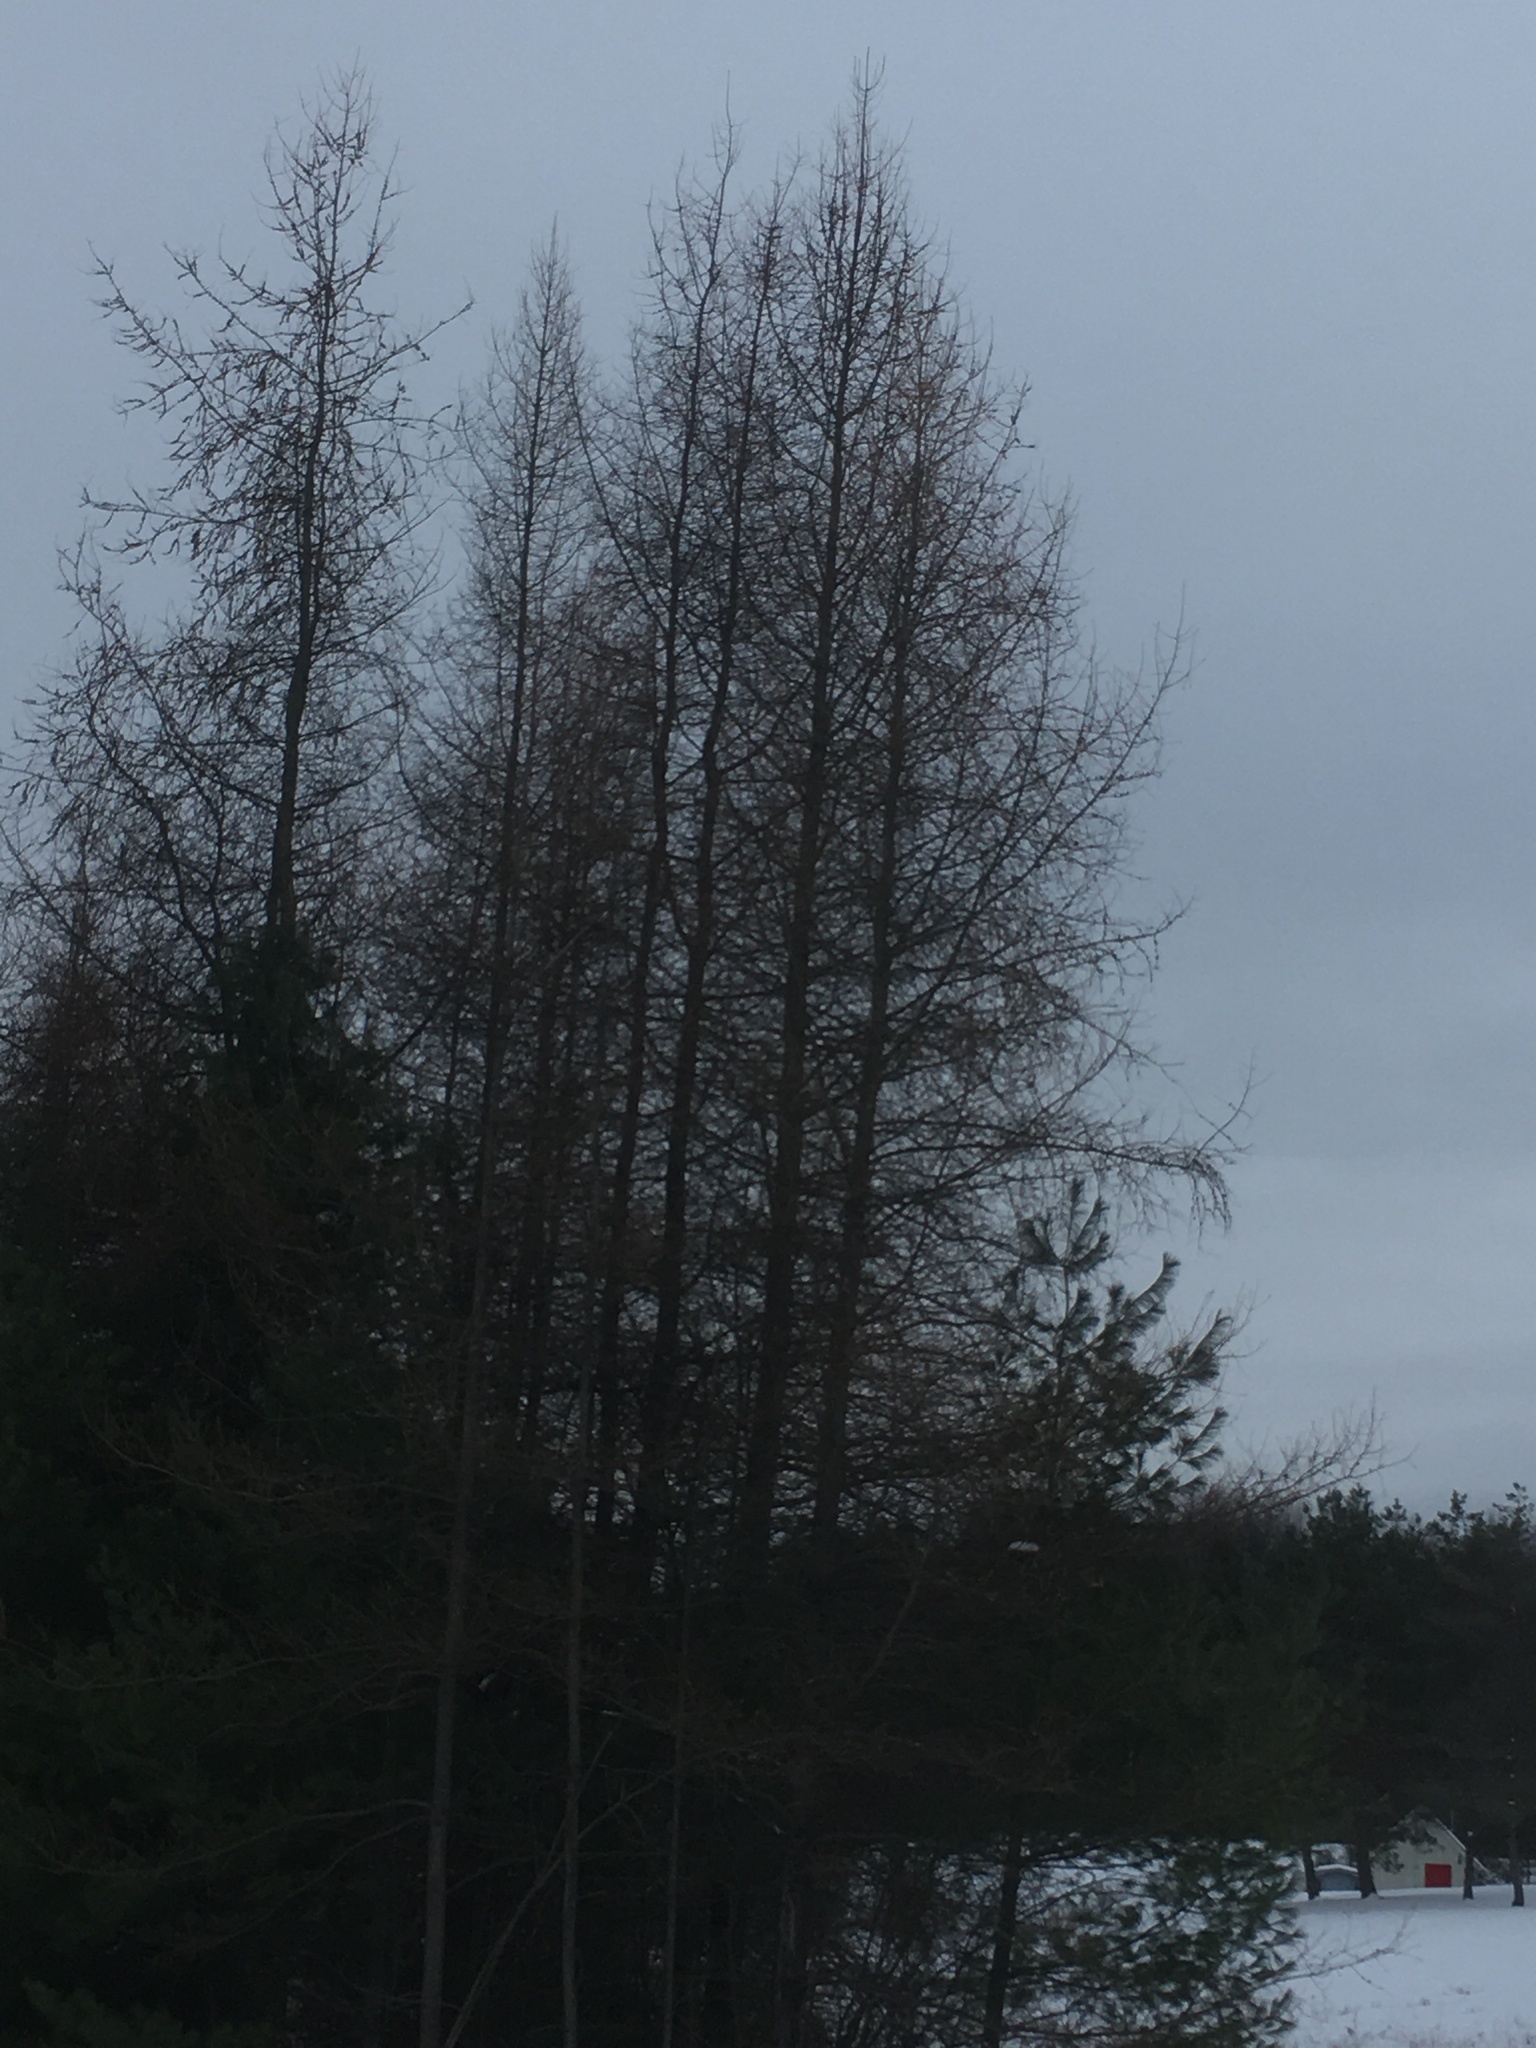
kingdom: Plantae
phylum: Tracheophyta
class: Pinopsida
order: Pinales
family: Pinaceae
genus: Larix
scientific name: Larix laricina
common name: American larch
